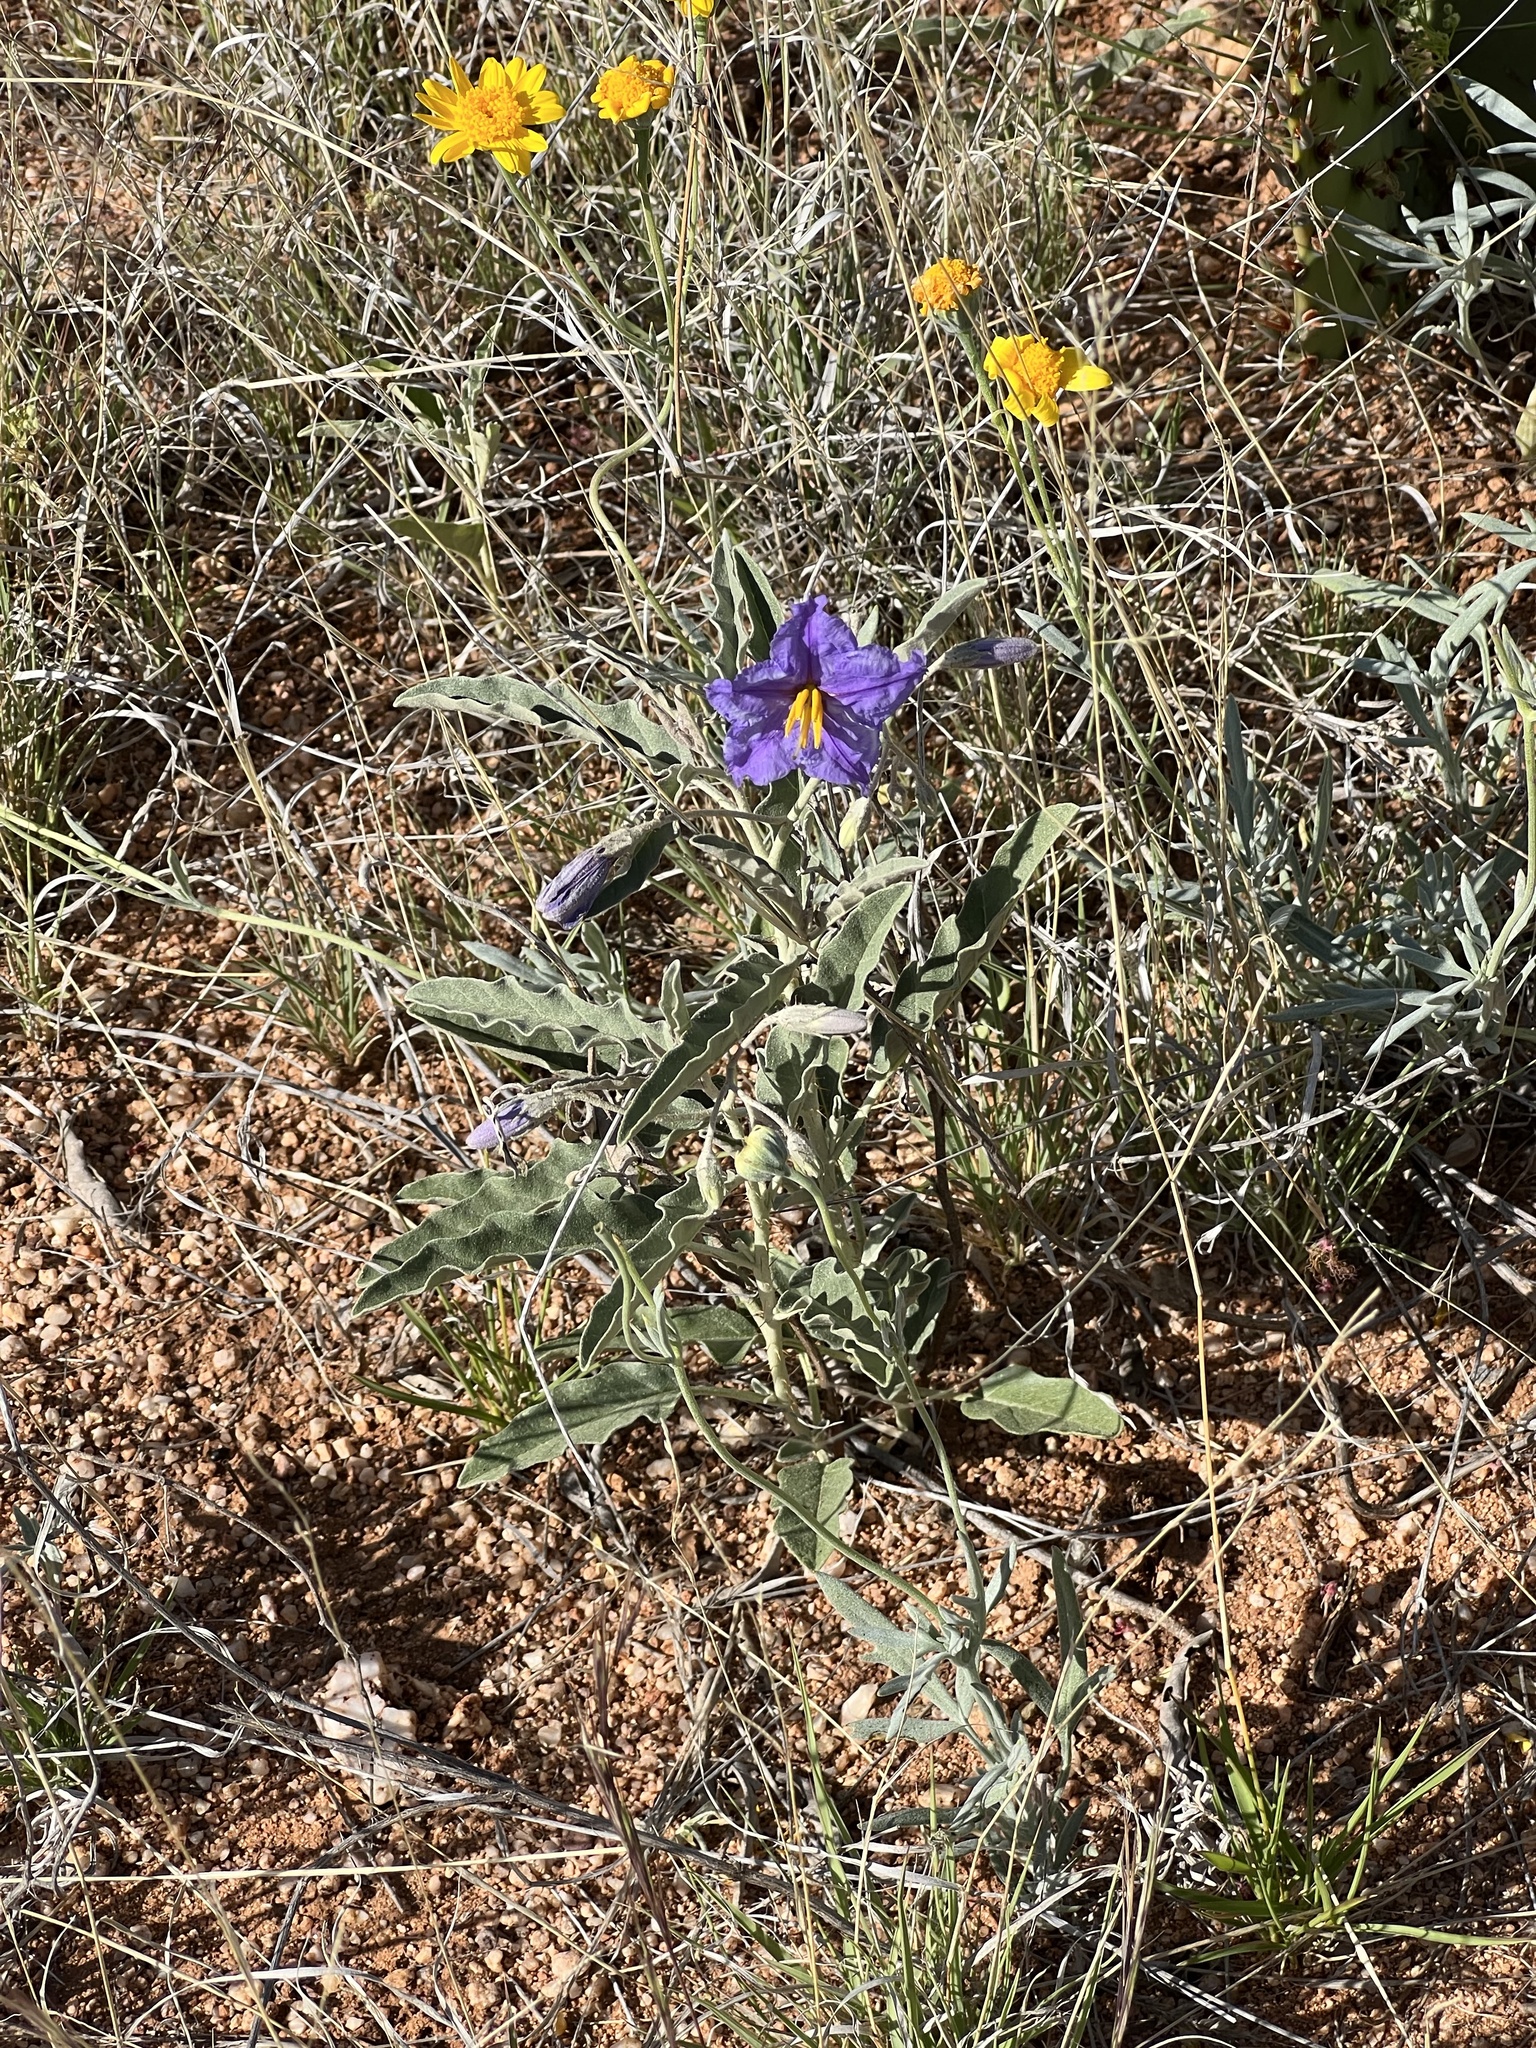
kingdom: Plantae
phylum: Tracheophyta
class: Magnoliopsida
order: Solanales
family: Solanaceae
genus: Solanum
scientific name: Solanum elaeagnifolium
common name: Silverleaf nightshade
